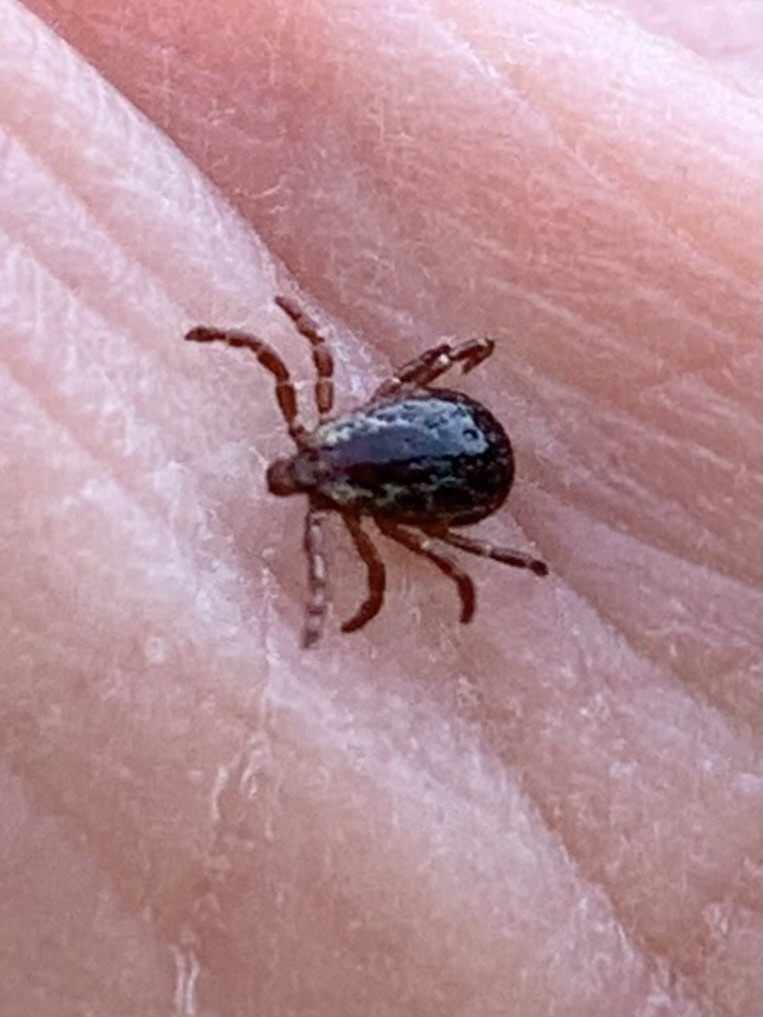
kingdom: Animalia
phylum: Arthropoda
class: Arachnida
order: Ixodida
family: Ixodidae
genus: Dermacentor
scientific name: Dermacentor variabilis
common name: American dog tick
